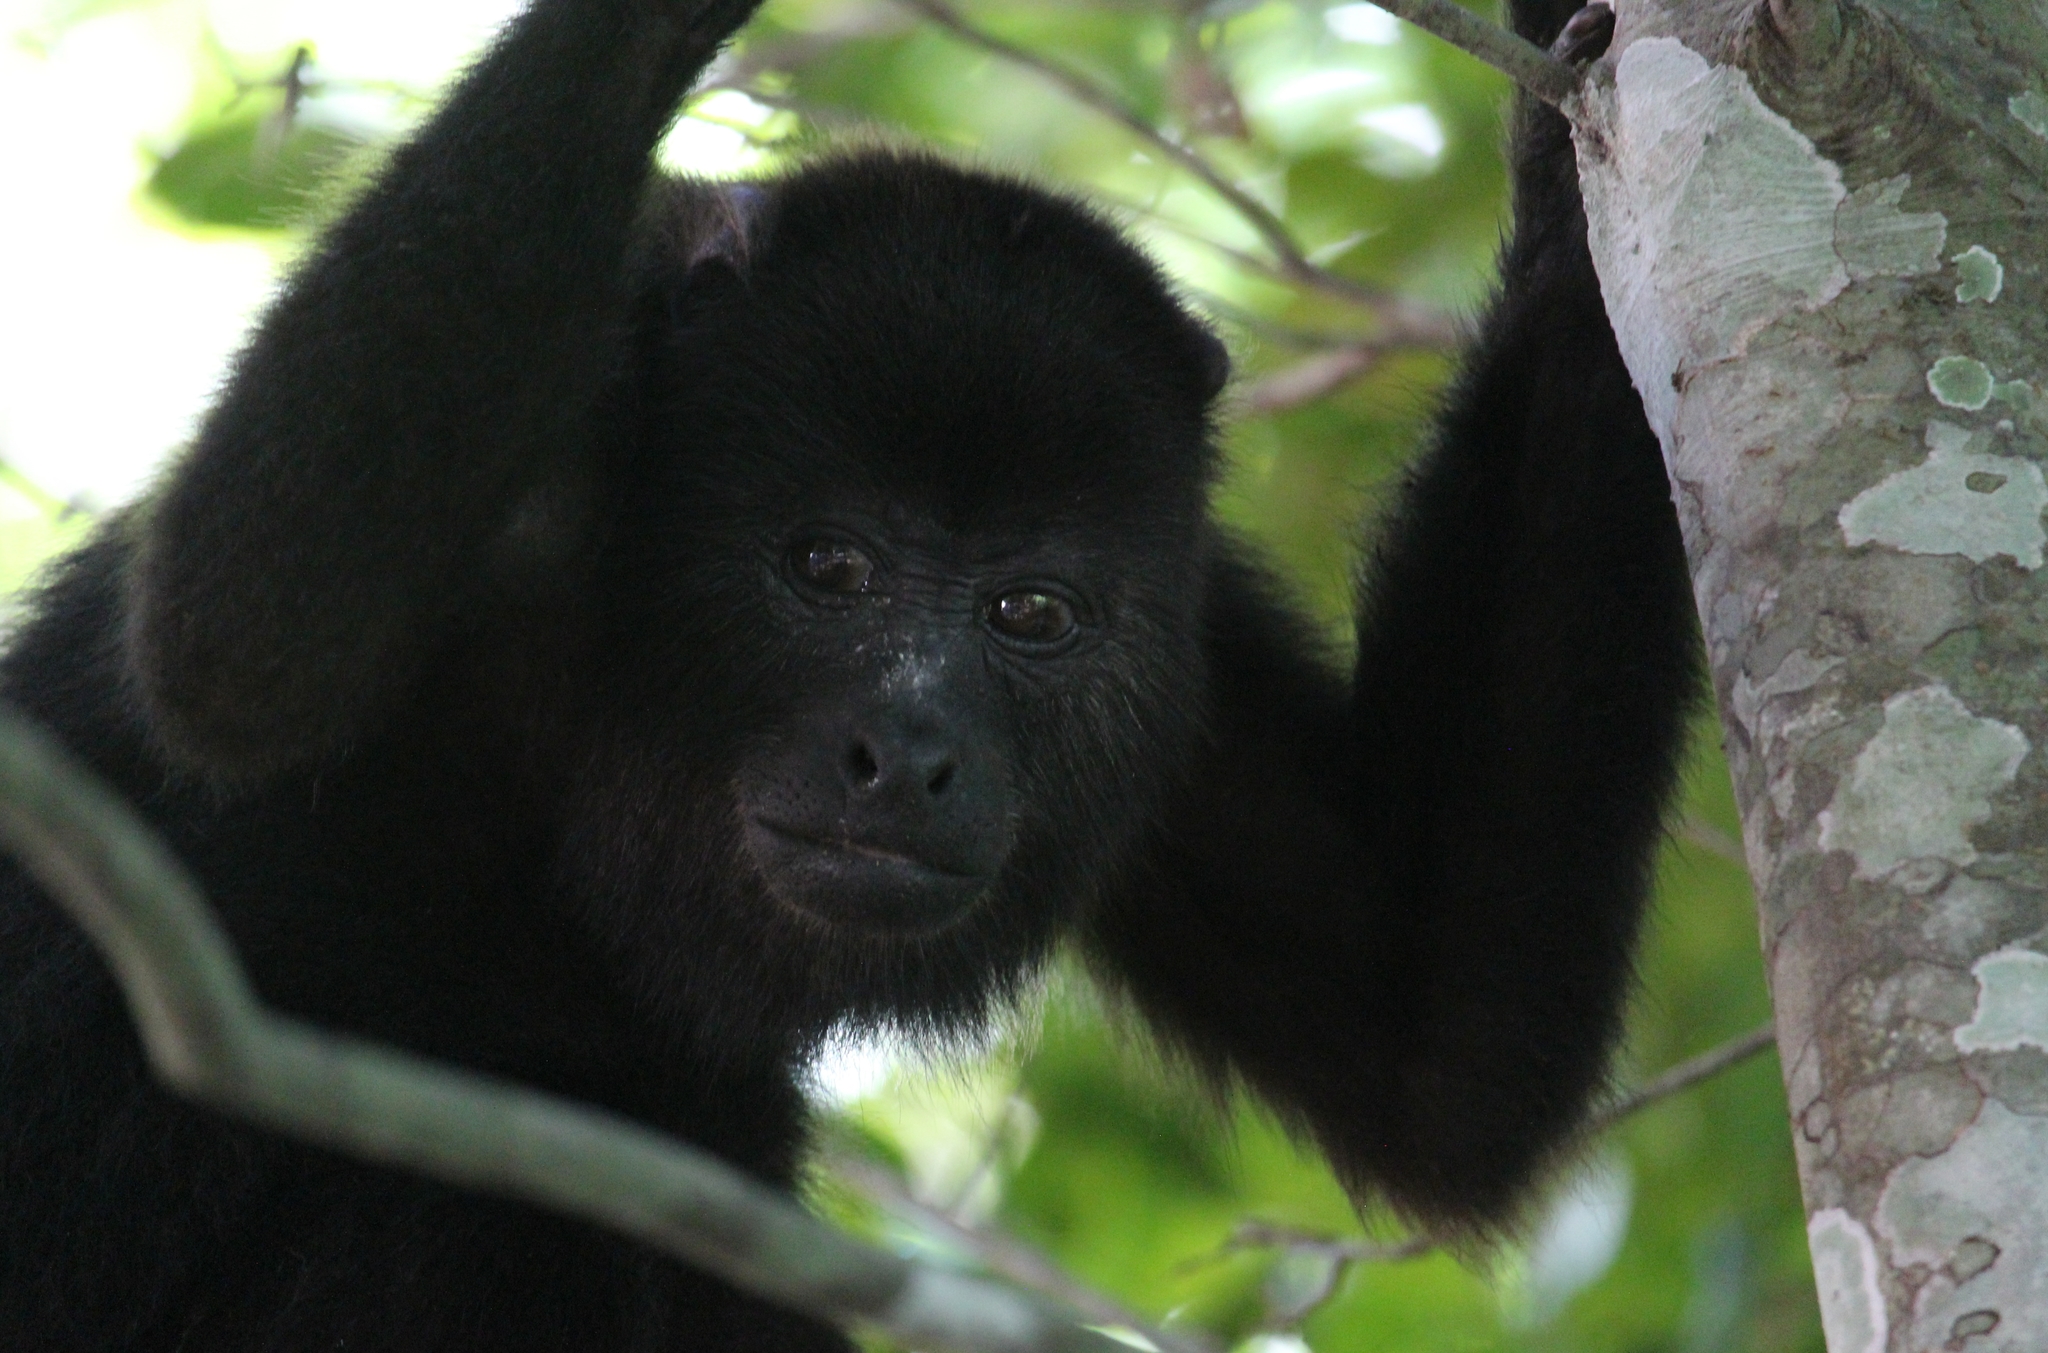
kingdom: Animalia
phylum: Chordata
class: Mammalia
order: Primates
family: Atelidae
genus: Alouatta
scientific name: Alouatta pigra
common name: Guatemalan black howler
